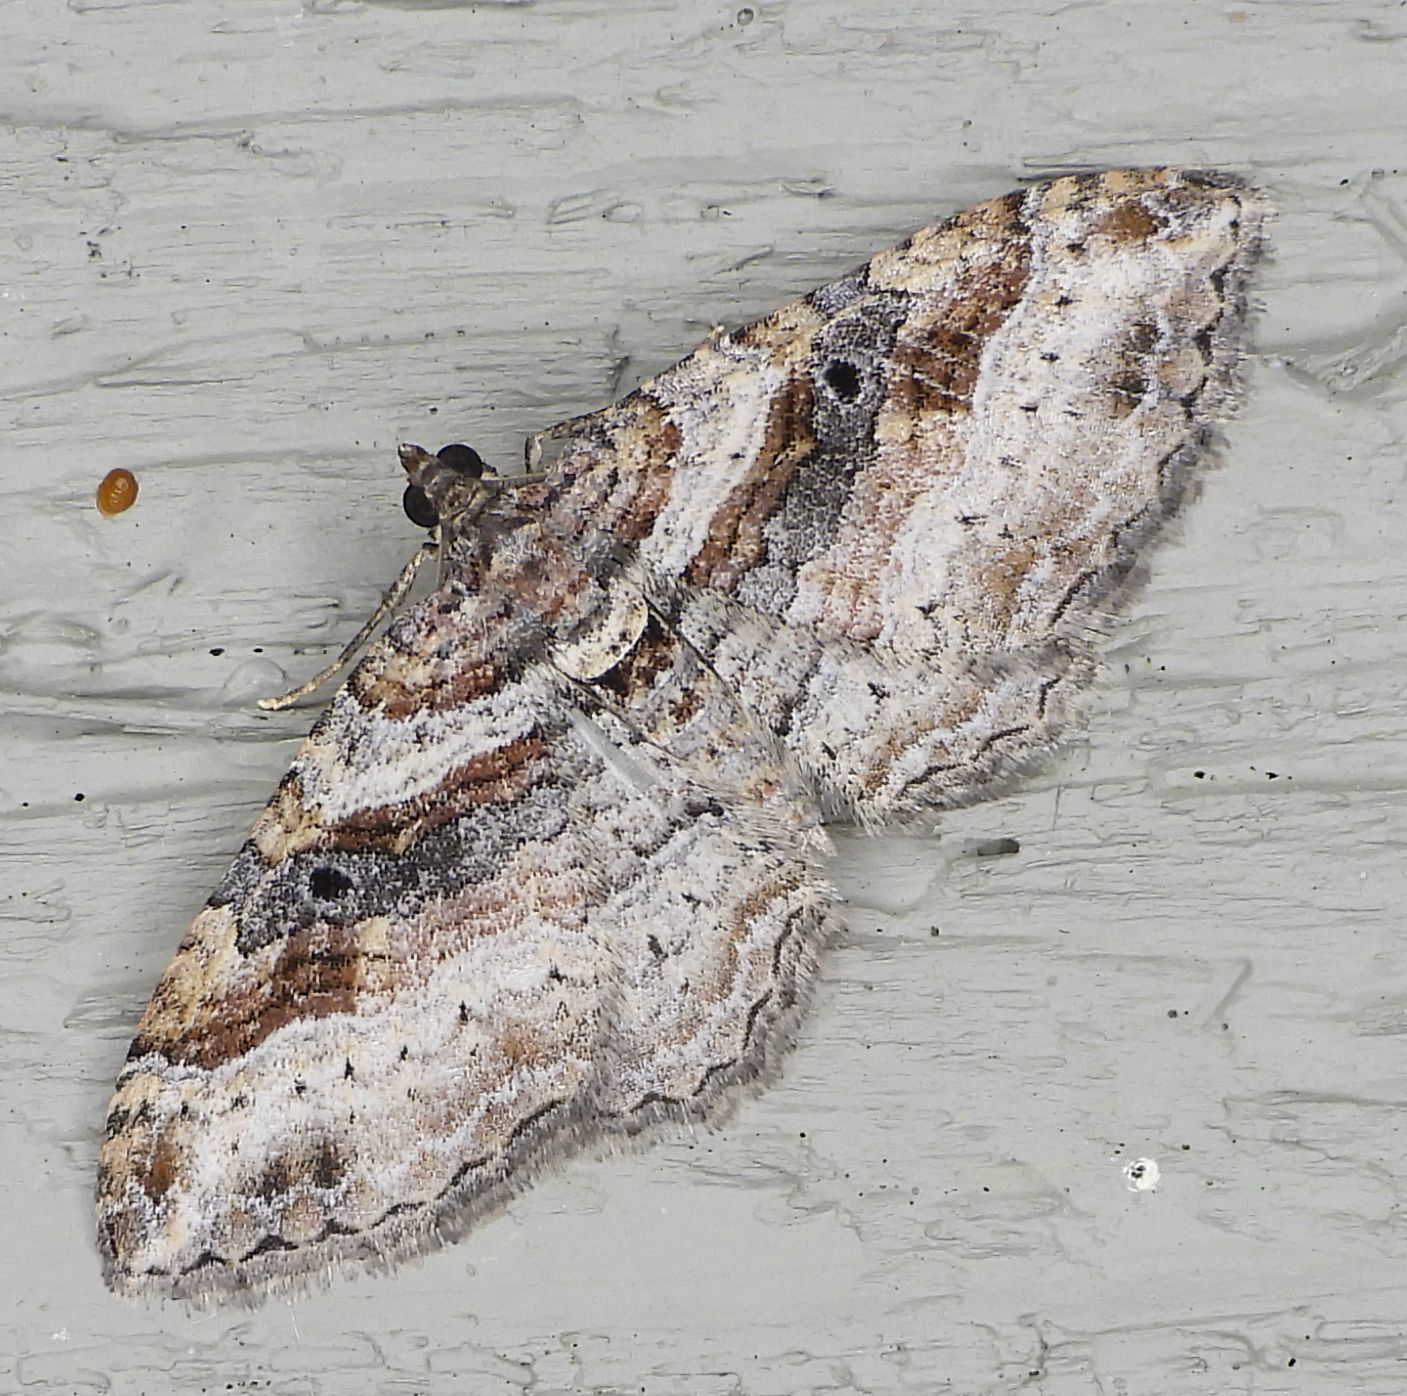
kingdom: Animalia
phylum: Arthropoda
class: Insecta
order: Lepidoptera
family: Geometridae
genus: Costaconvexa
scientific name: Costaconvexa centrostrigaria
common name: Bent-line carpet
